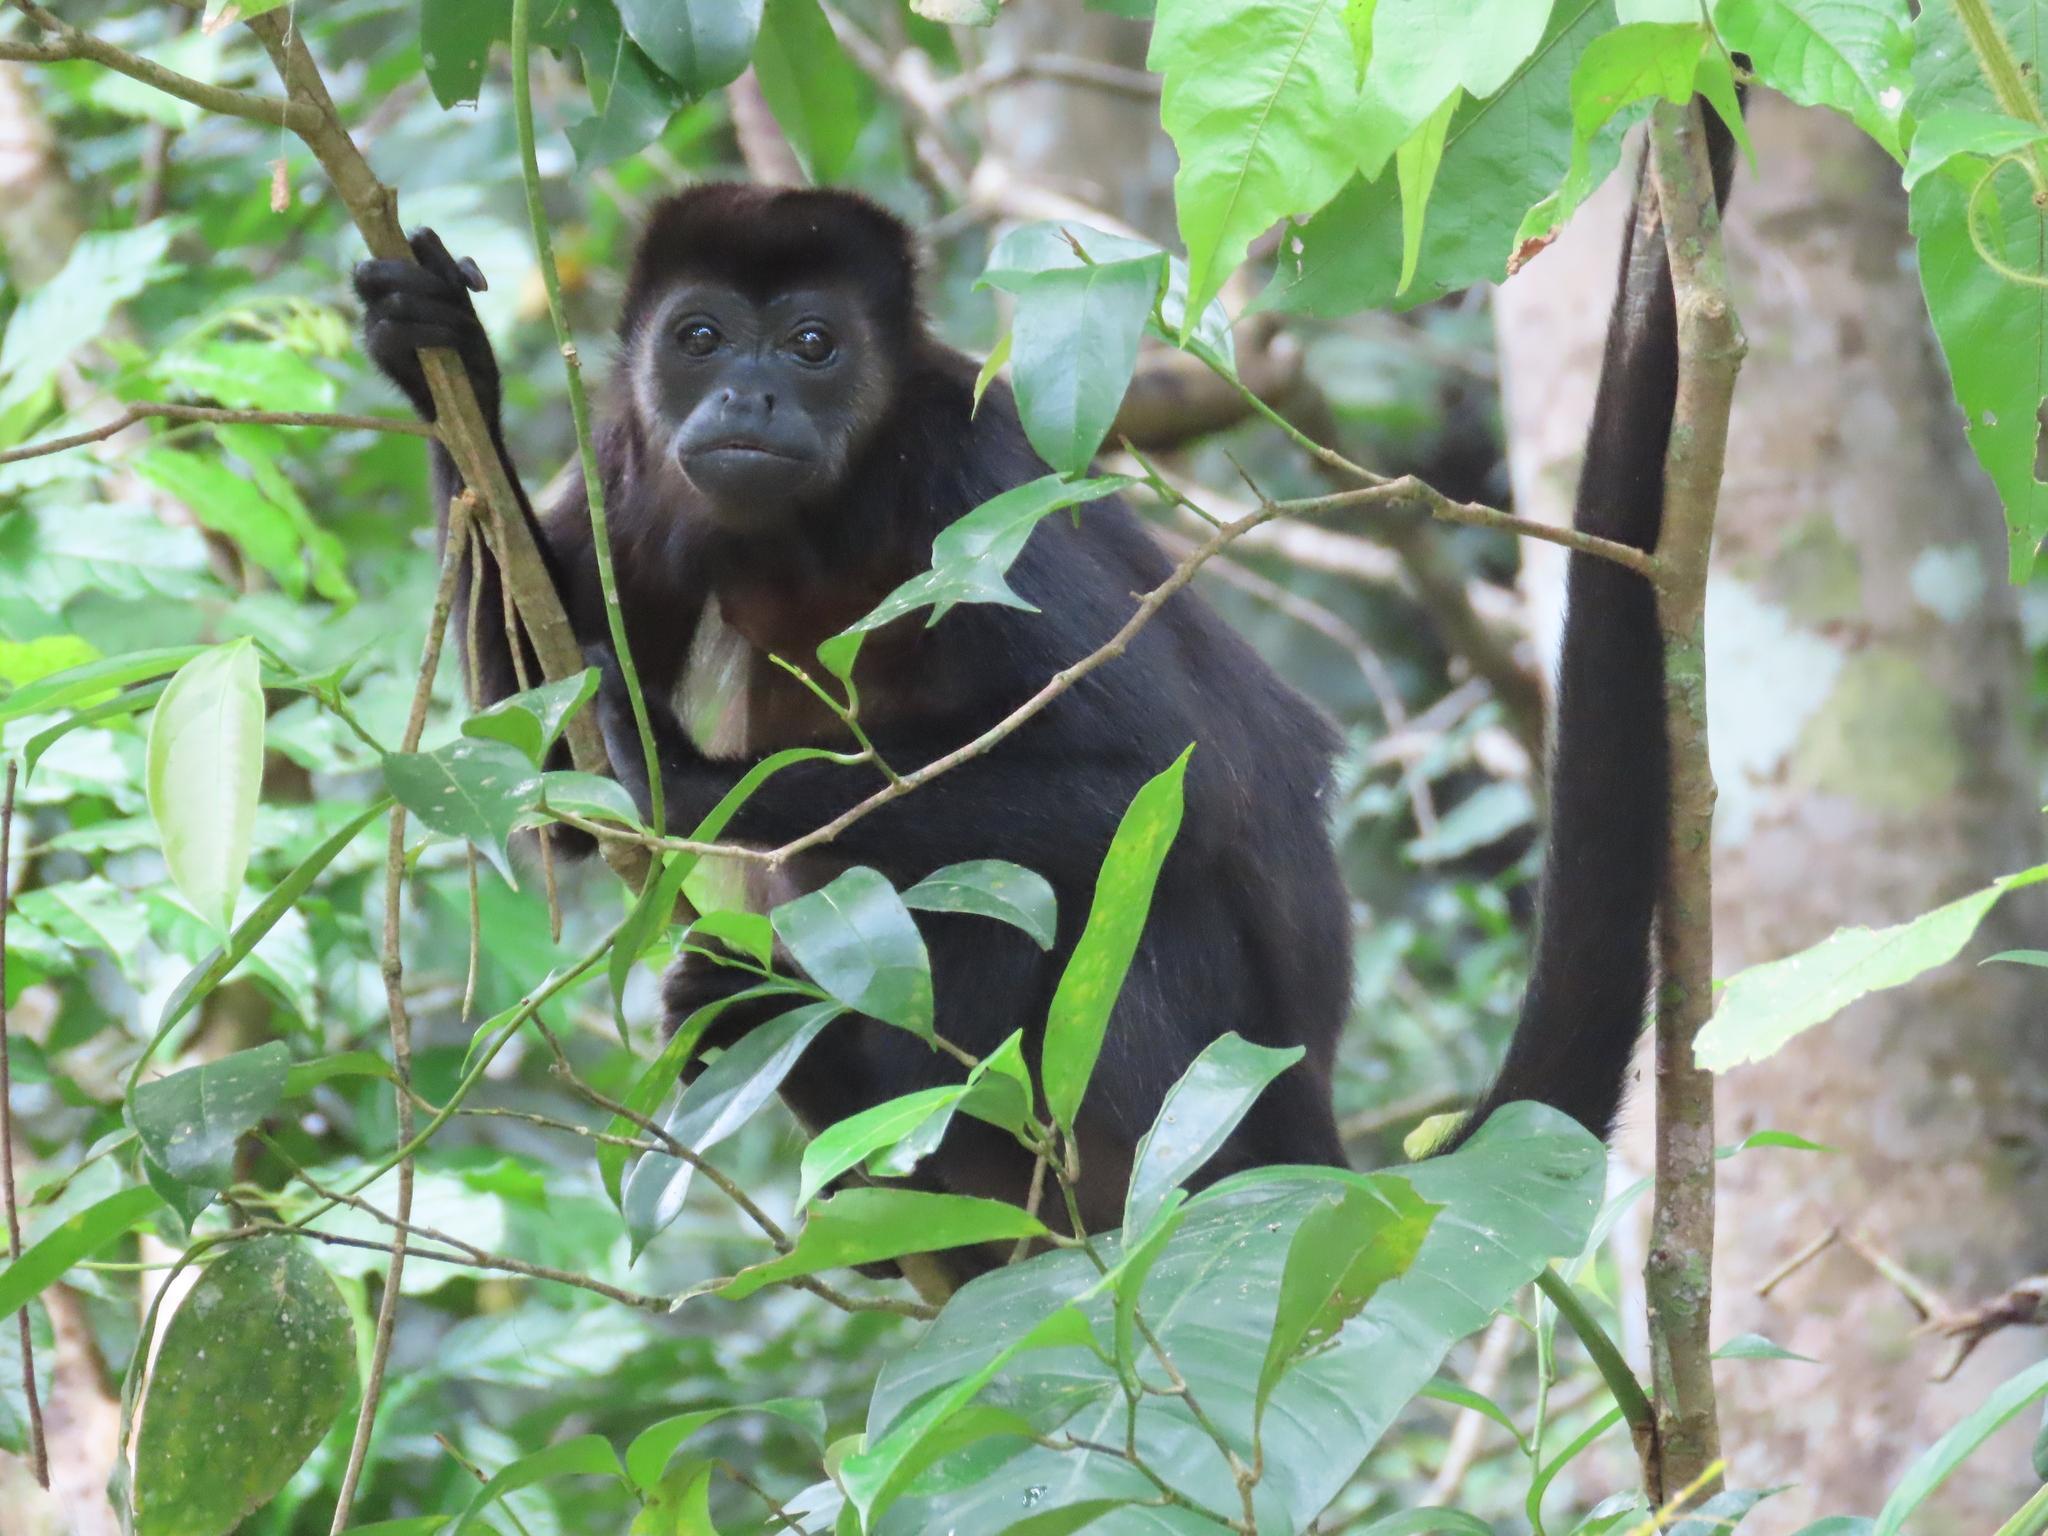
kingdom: Animalia
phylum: Chordata
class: Mammalia
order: Primates
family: Atelidae
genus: Alouatta
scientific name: Alouatta palliata
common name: Mantled howler
